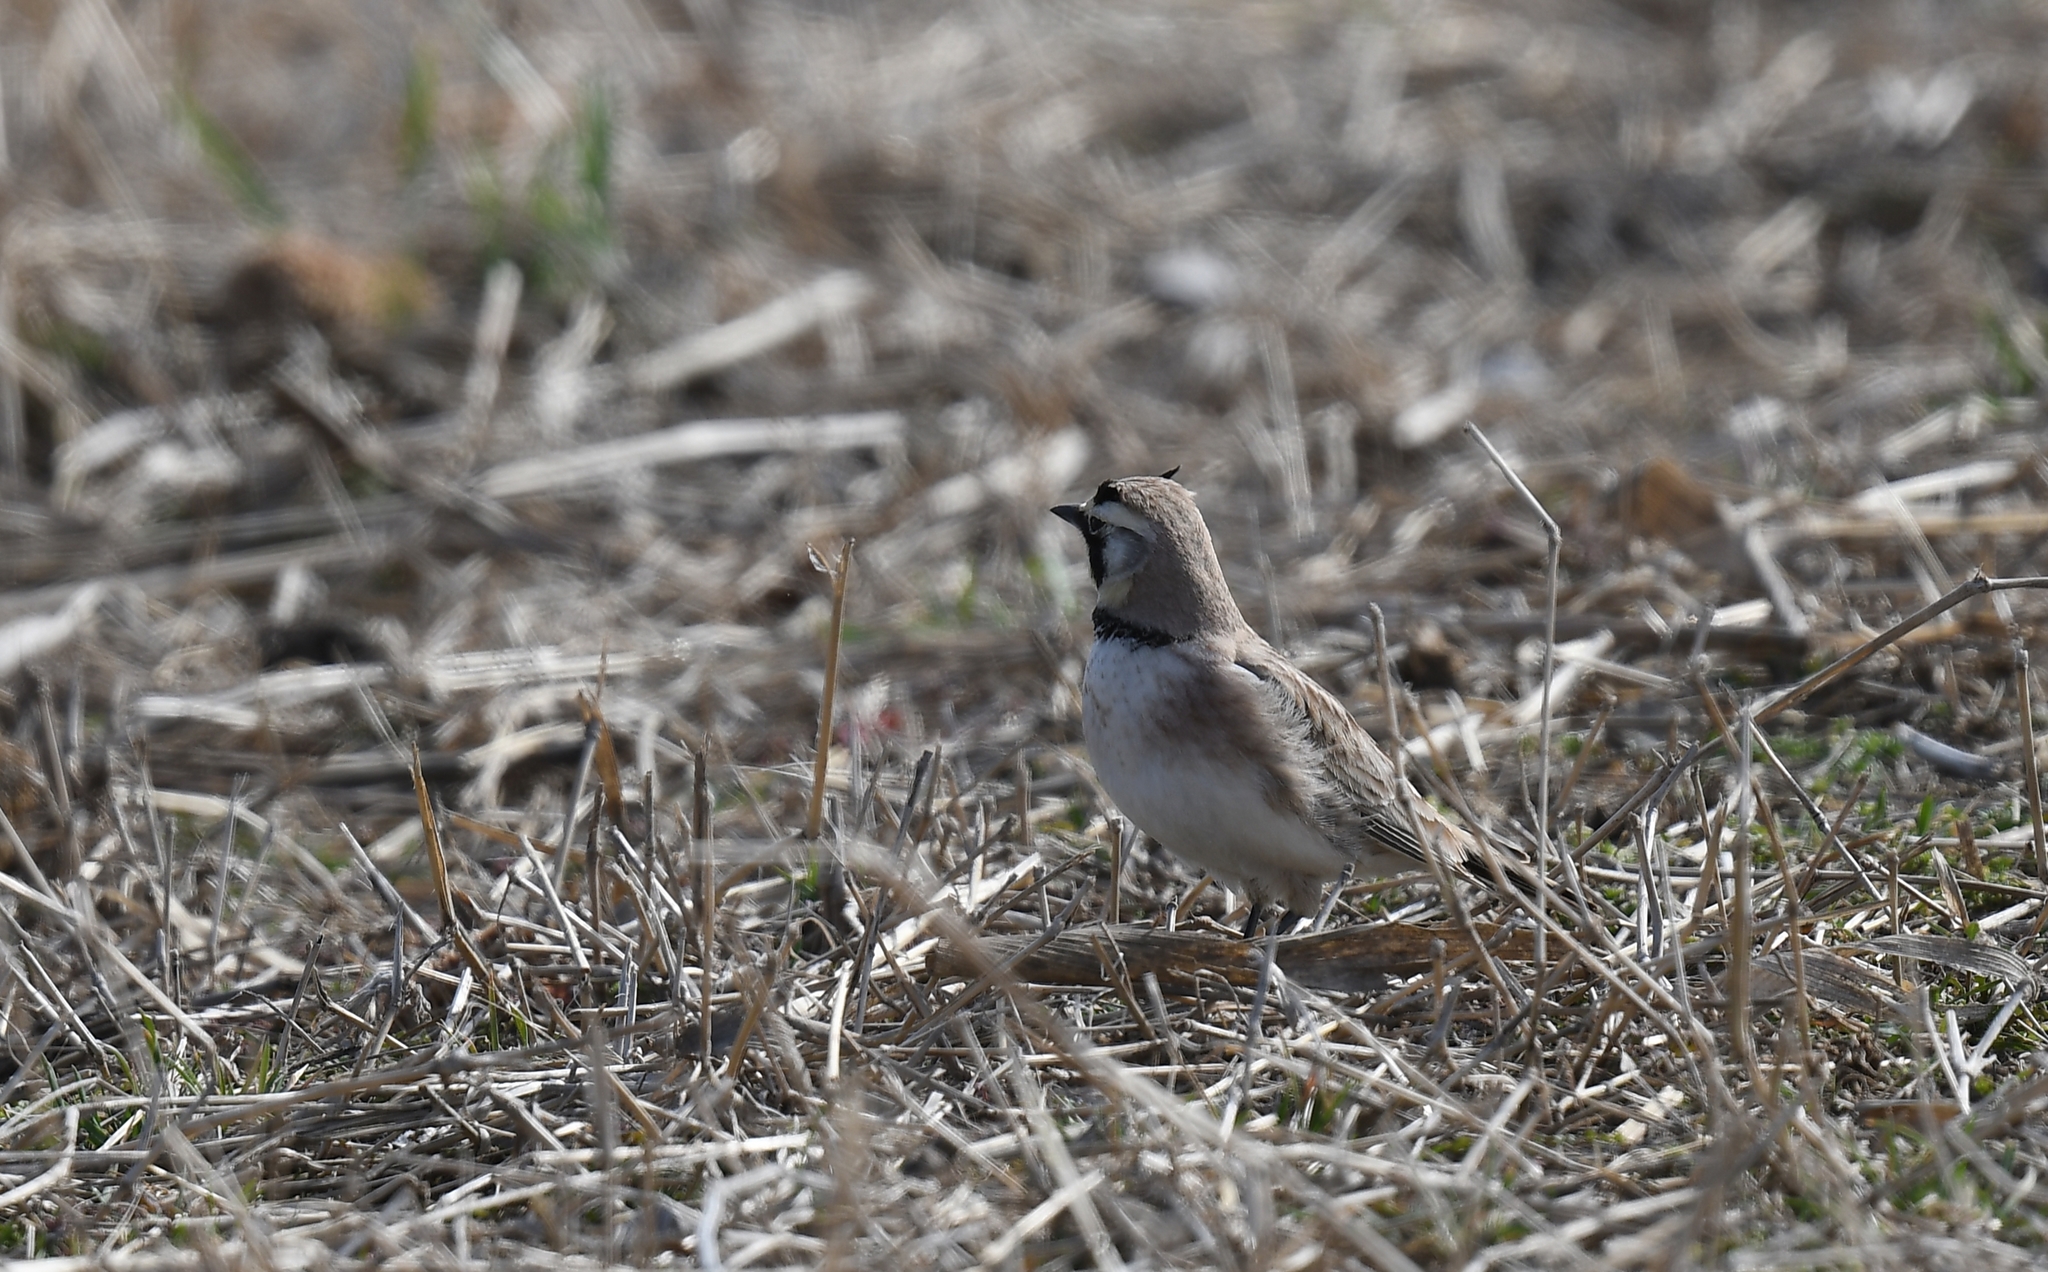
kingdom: Animalia
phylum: Chordata
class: Aves
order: Passeriformes
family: Alaudidae
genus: Eremophila
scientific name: Eremophila alpestris
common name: Horned lark
